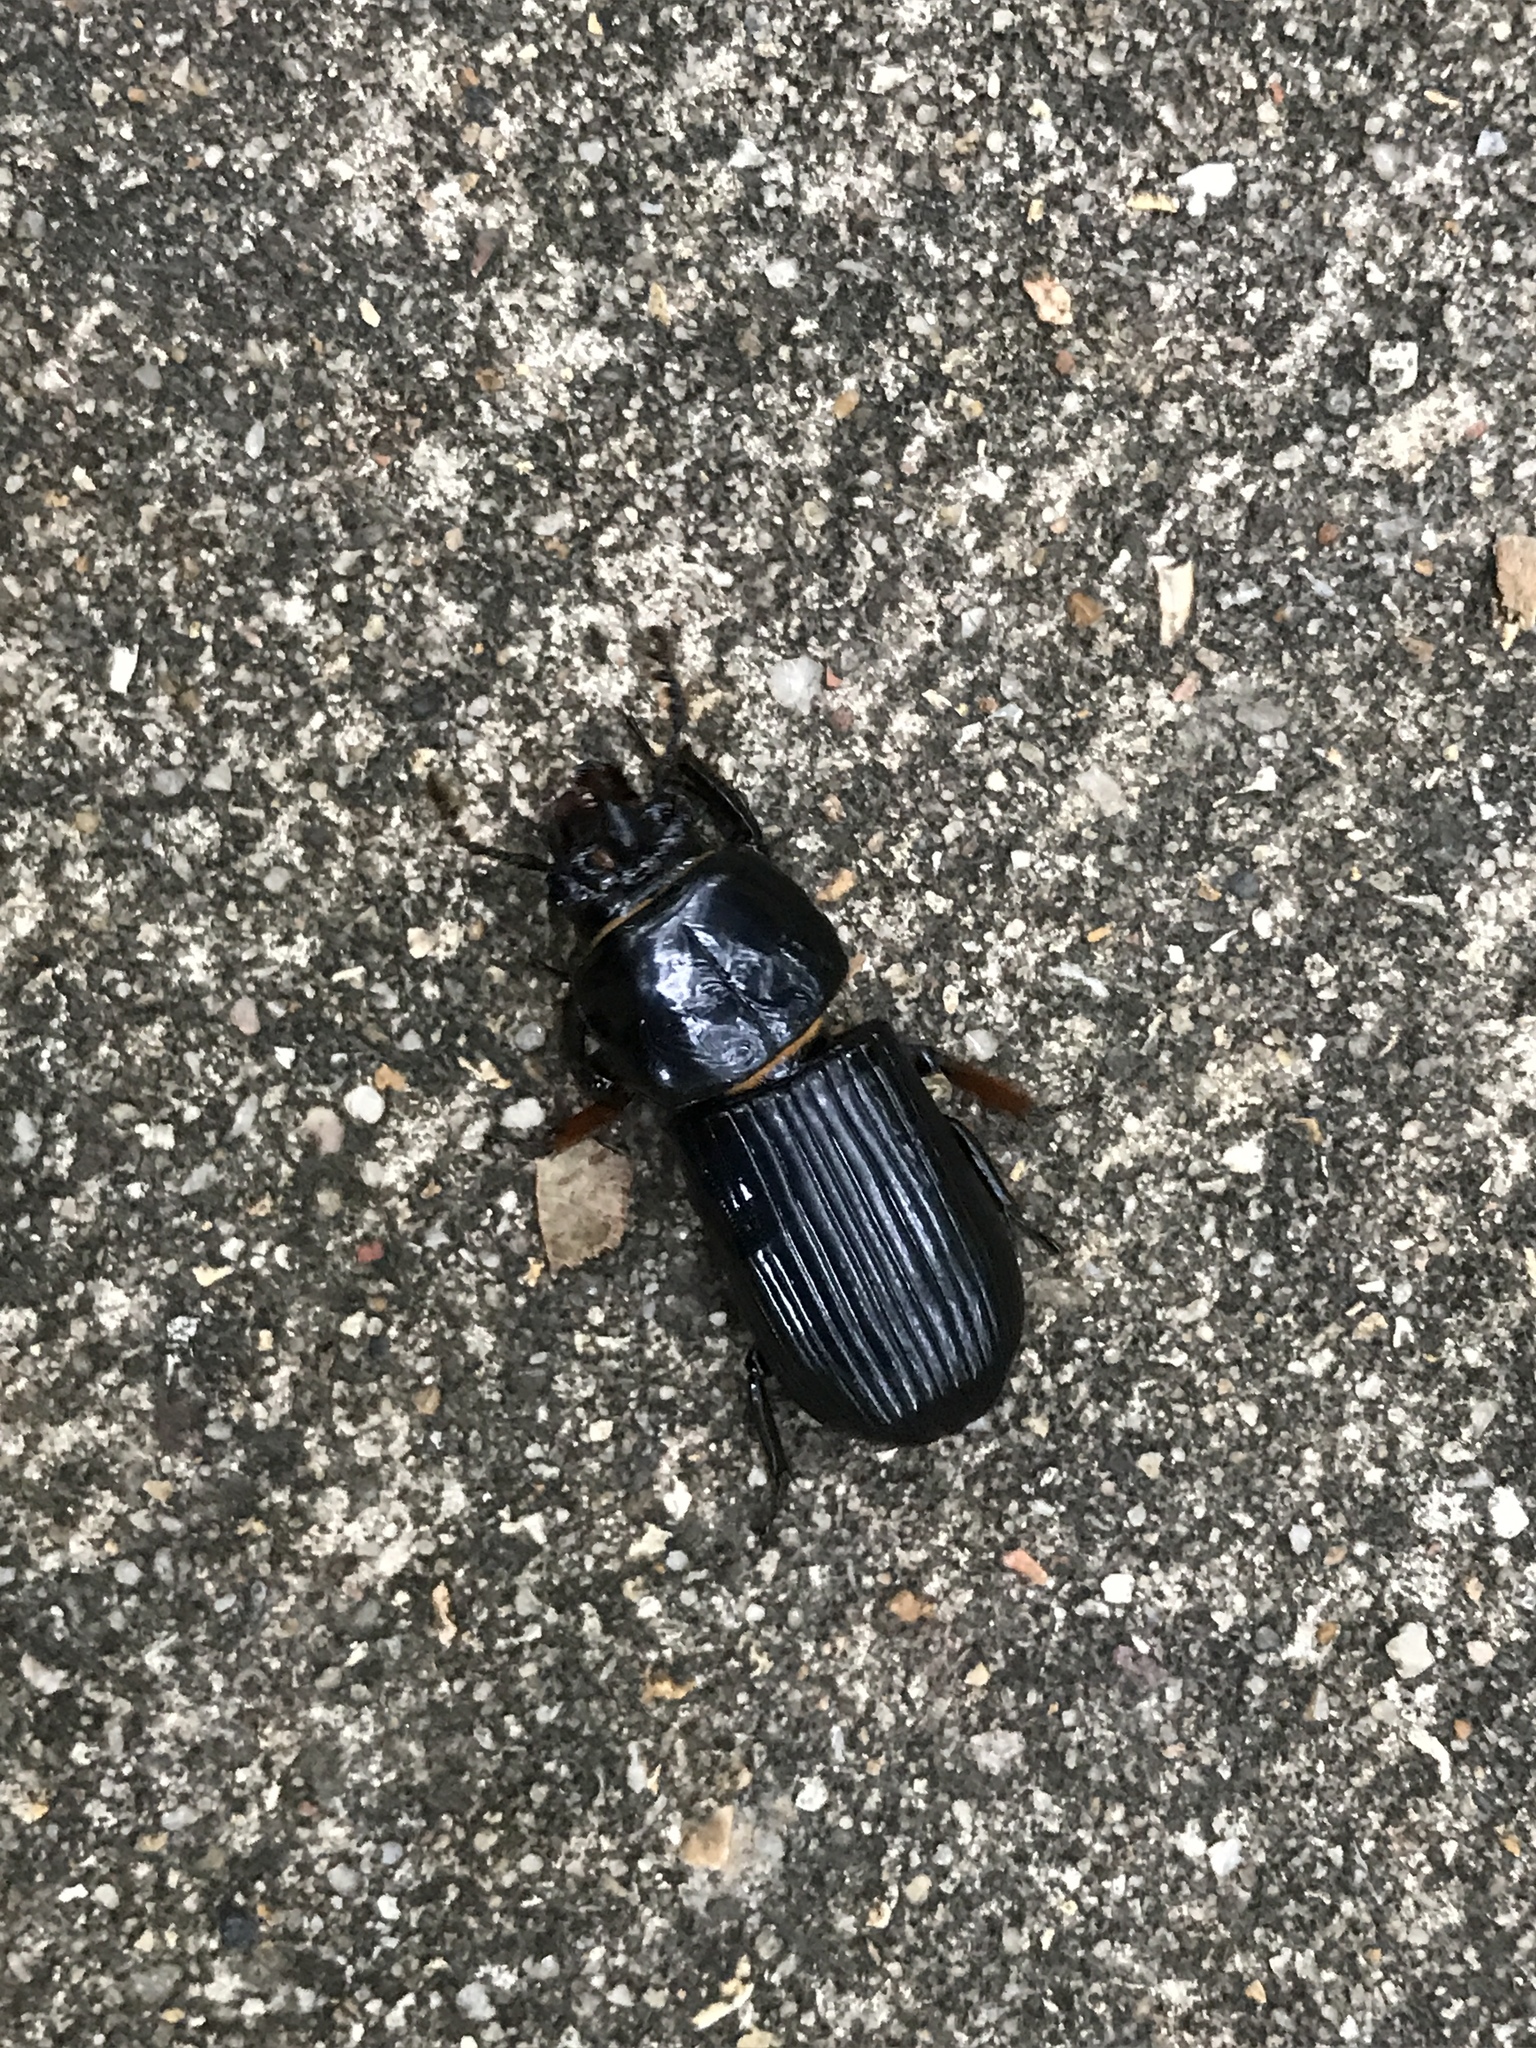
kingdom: Animalia
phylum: Arthropoda
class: Insecta
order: Coleoptera
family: Passalidae
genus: Odontotaenius
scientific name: Odontotaenius disjunctus
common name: Patent leather beetle
